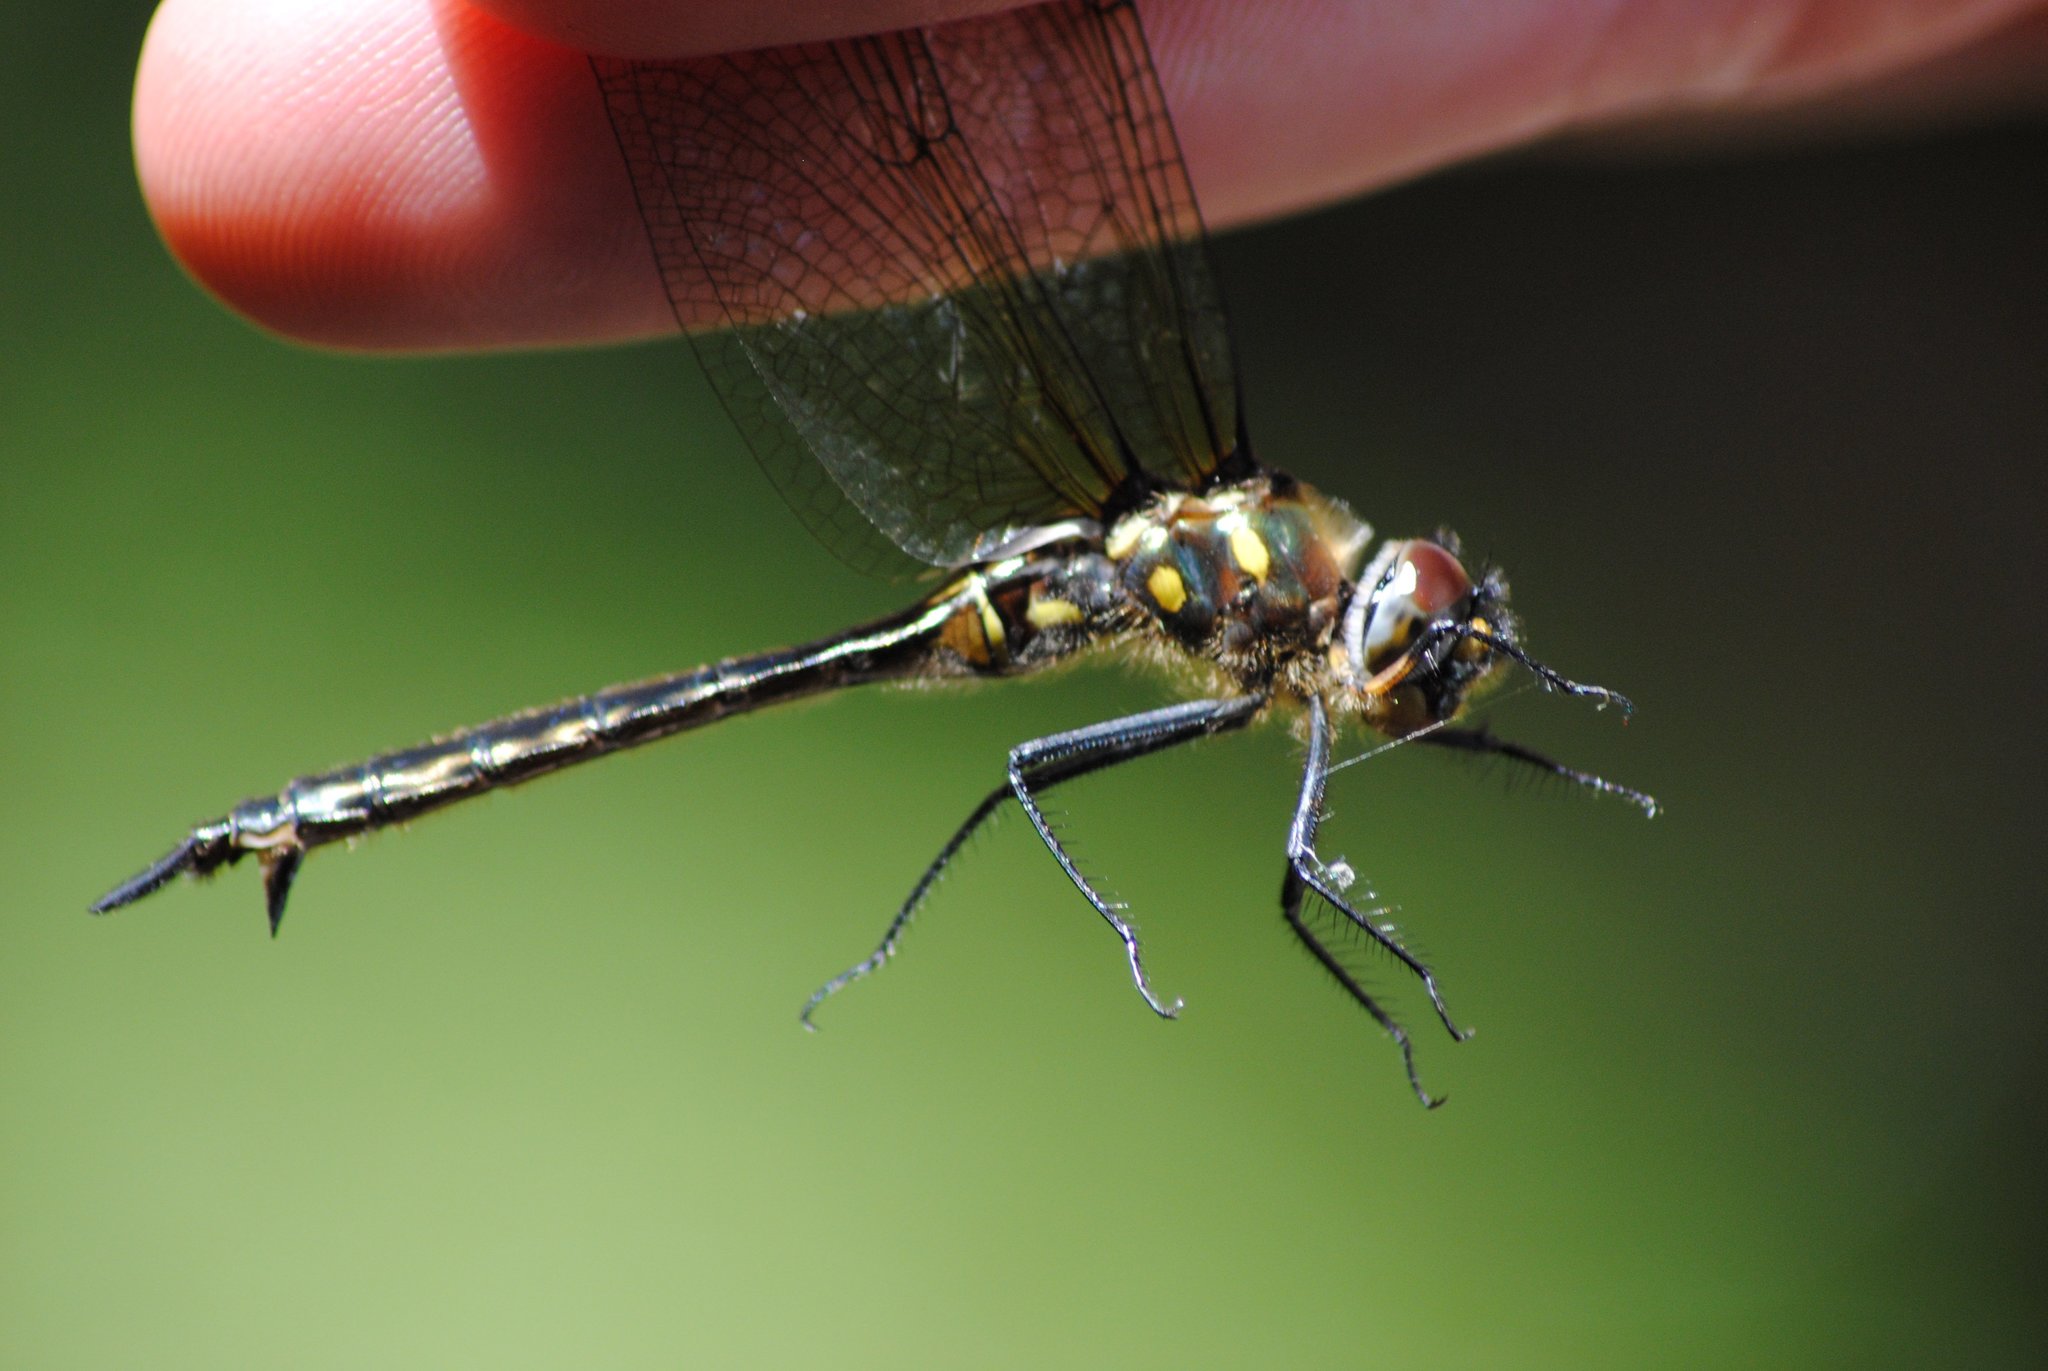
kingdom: Animalia
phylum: Arthropoda
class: Insecta
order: Odonata
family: Corduliidae
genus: Somatochlora
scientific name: Somatochlora minor
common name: Ocellated emerald
